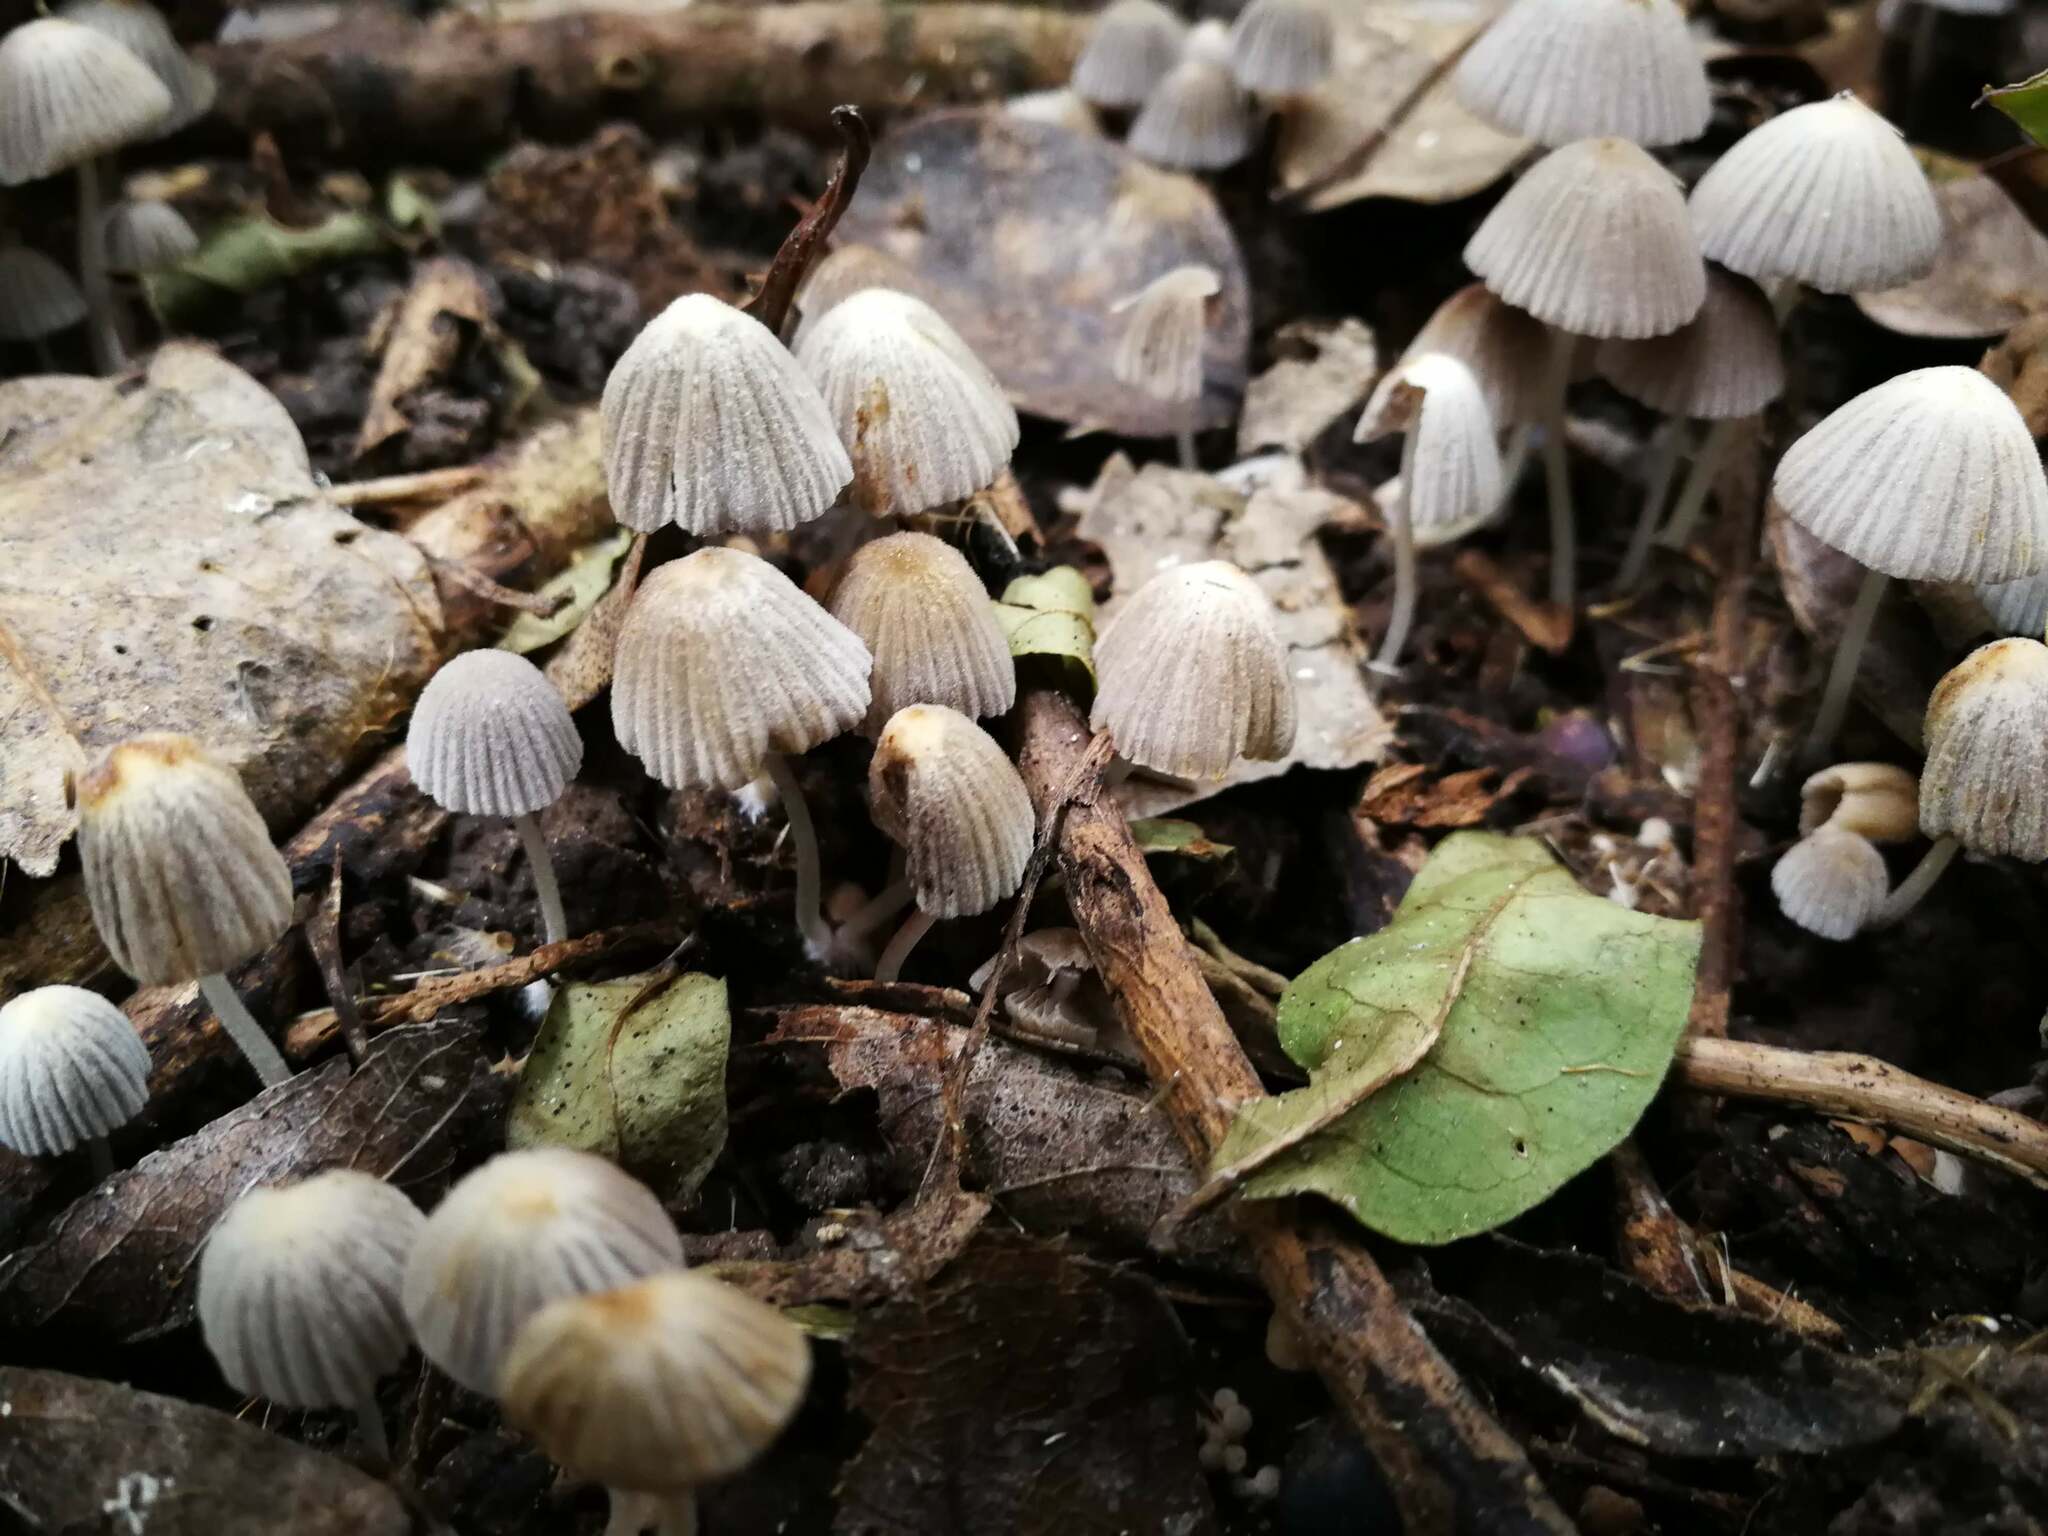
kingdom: Fungi
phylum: Basidiomycota
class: Agaricomycetes
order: Agaricales
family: Psathyrellaceae
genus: Coprinellus
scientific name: Coprinellus disseminatus
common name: Fairies' bonnets
